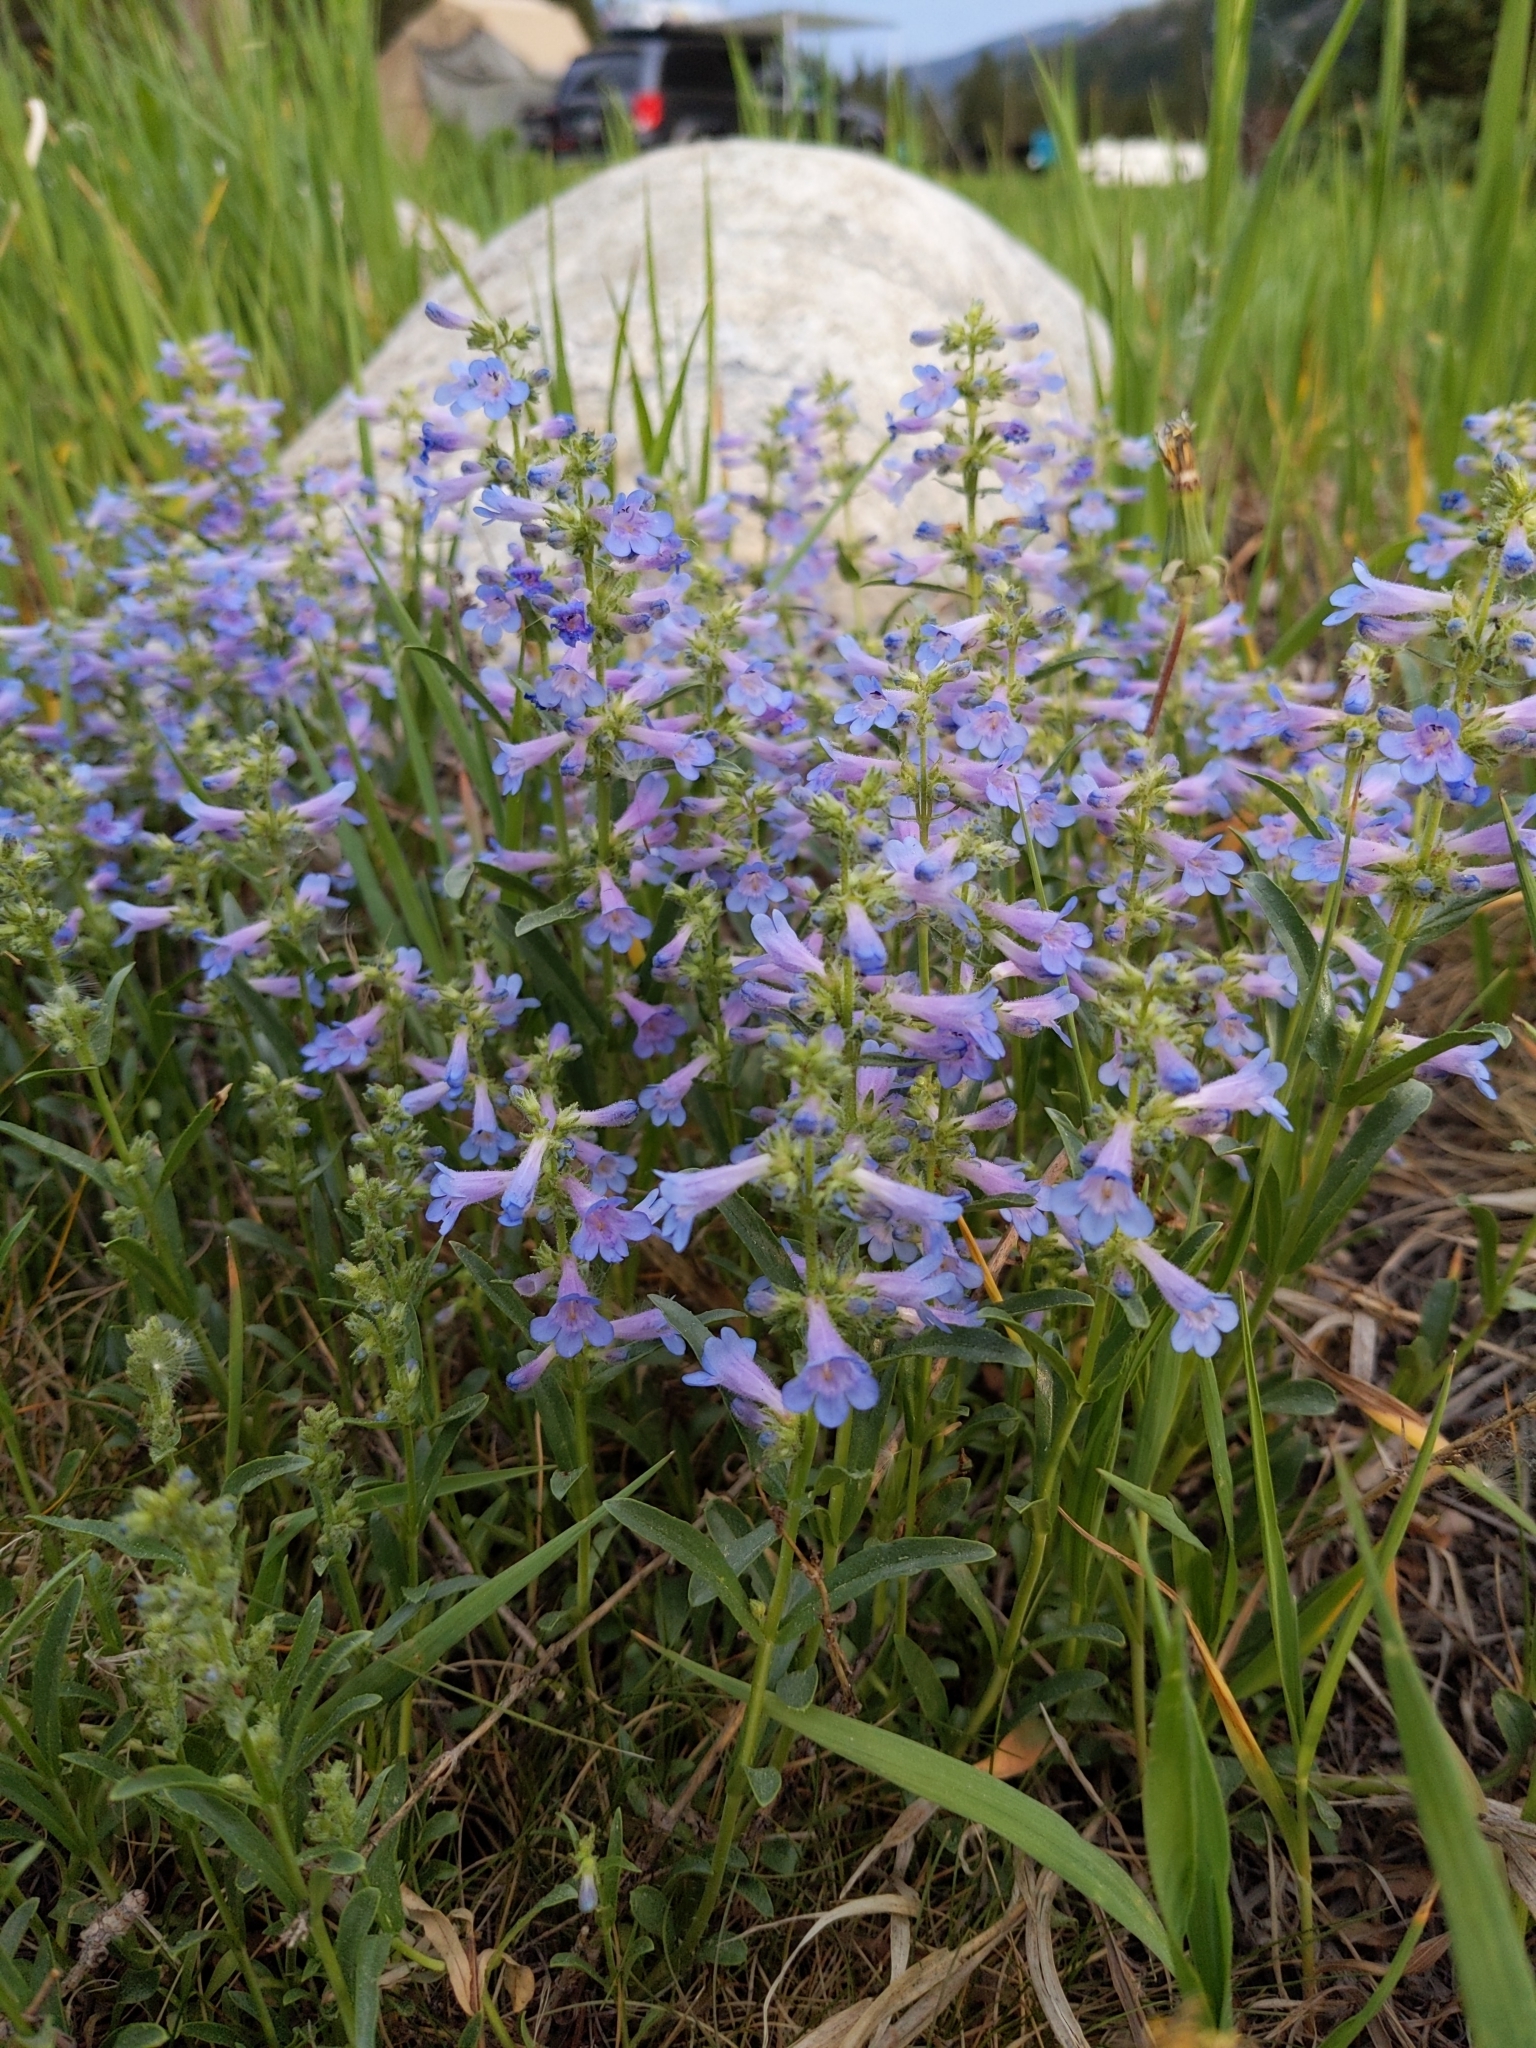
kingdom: Plantae
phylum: Tracheophyta
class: Magnoliopsida
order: Lamiales
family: Plantaginaceae
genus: Penstemon
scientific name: Penstemon virens
